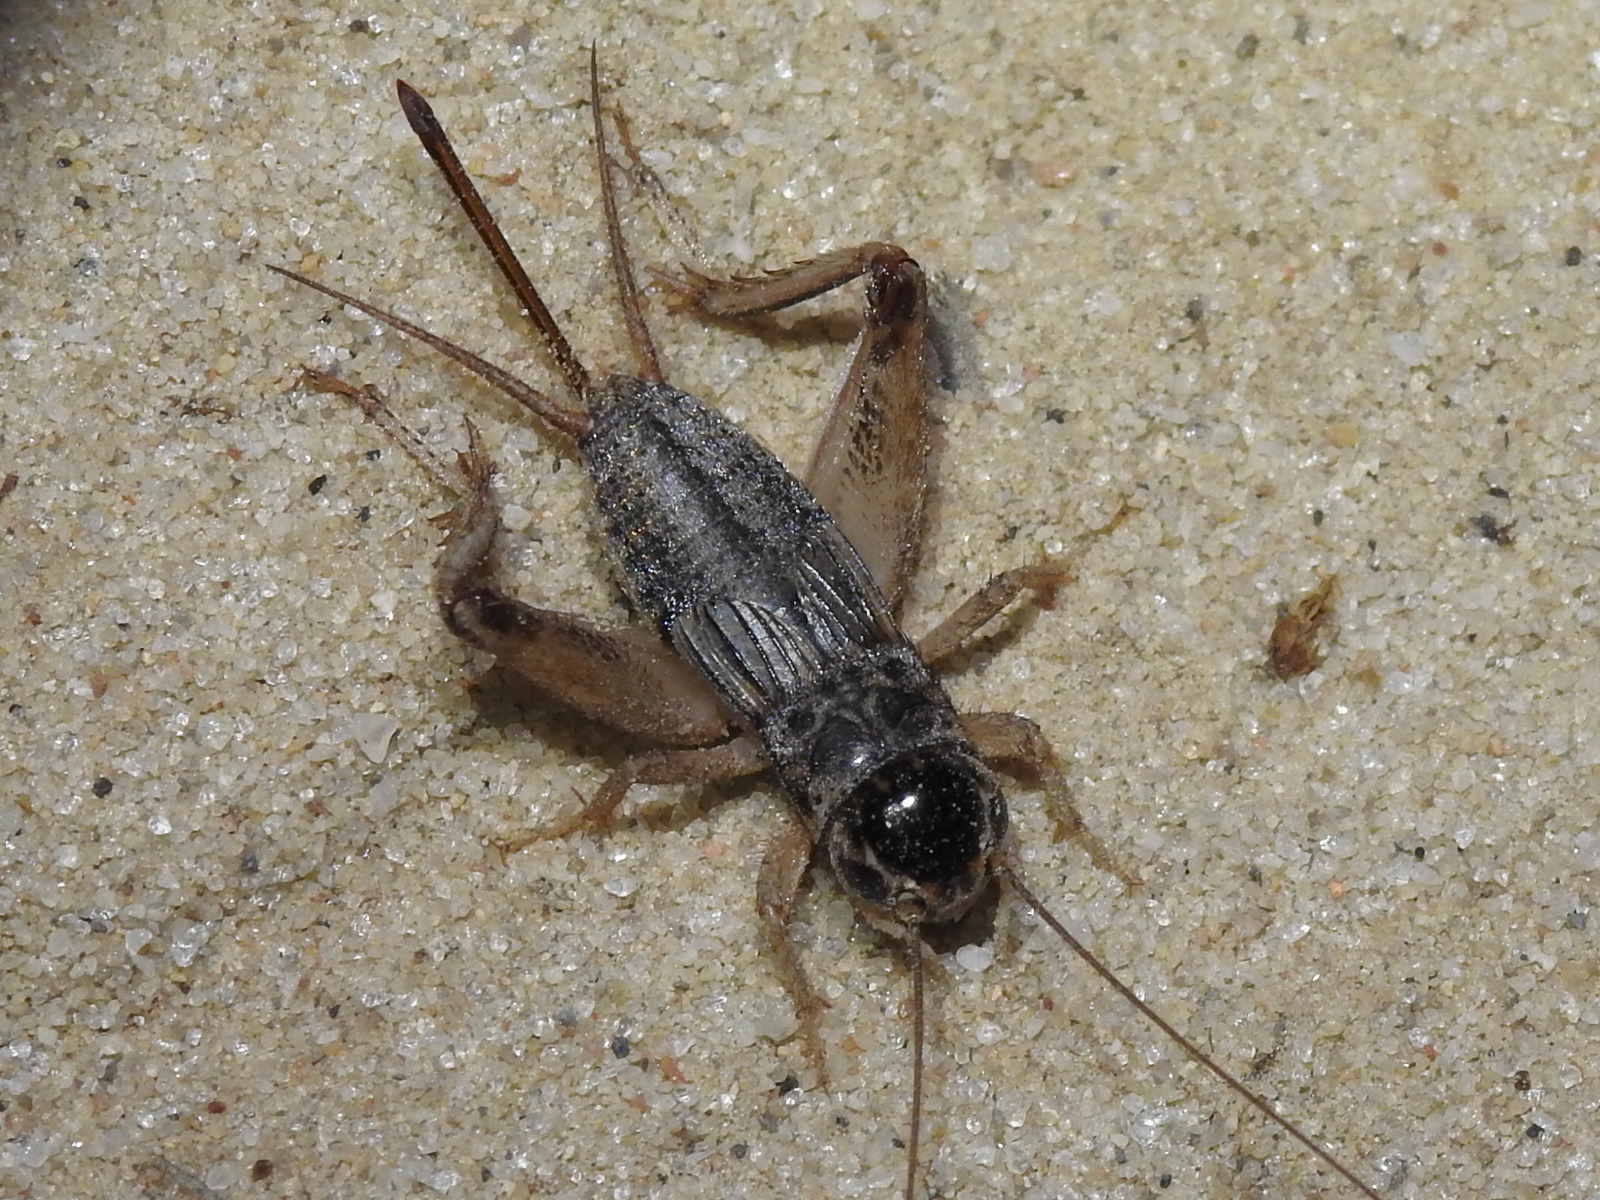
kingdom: Animalia
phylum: Arthropoda
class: Insecta
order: Orthoptera
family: Gryllidae
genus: Miogryllus
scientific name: Miogryllus verticalis
